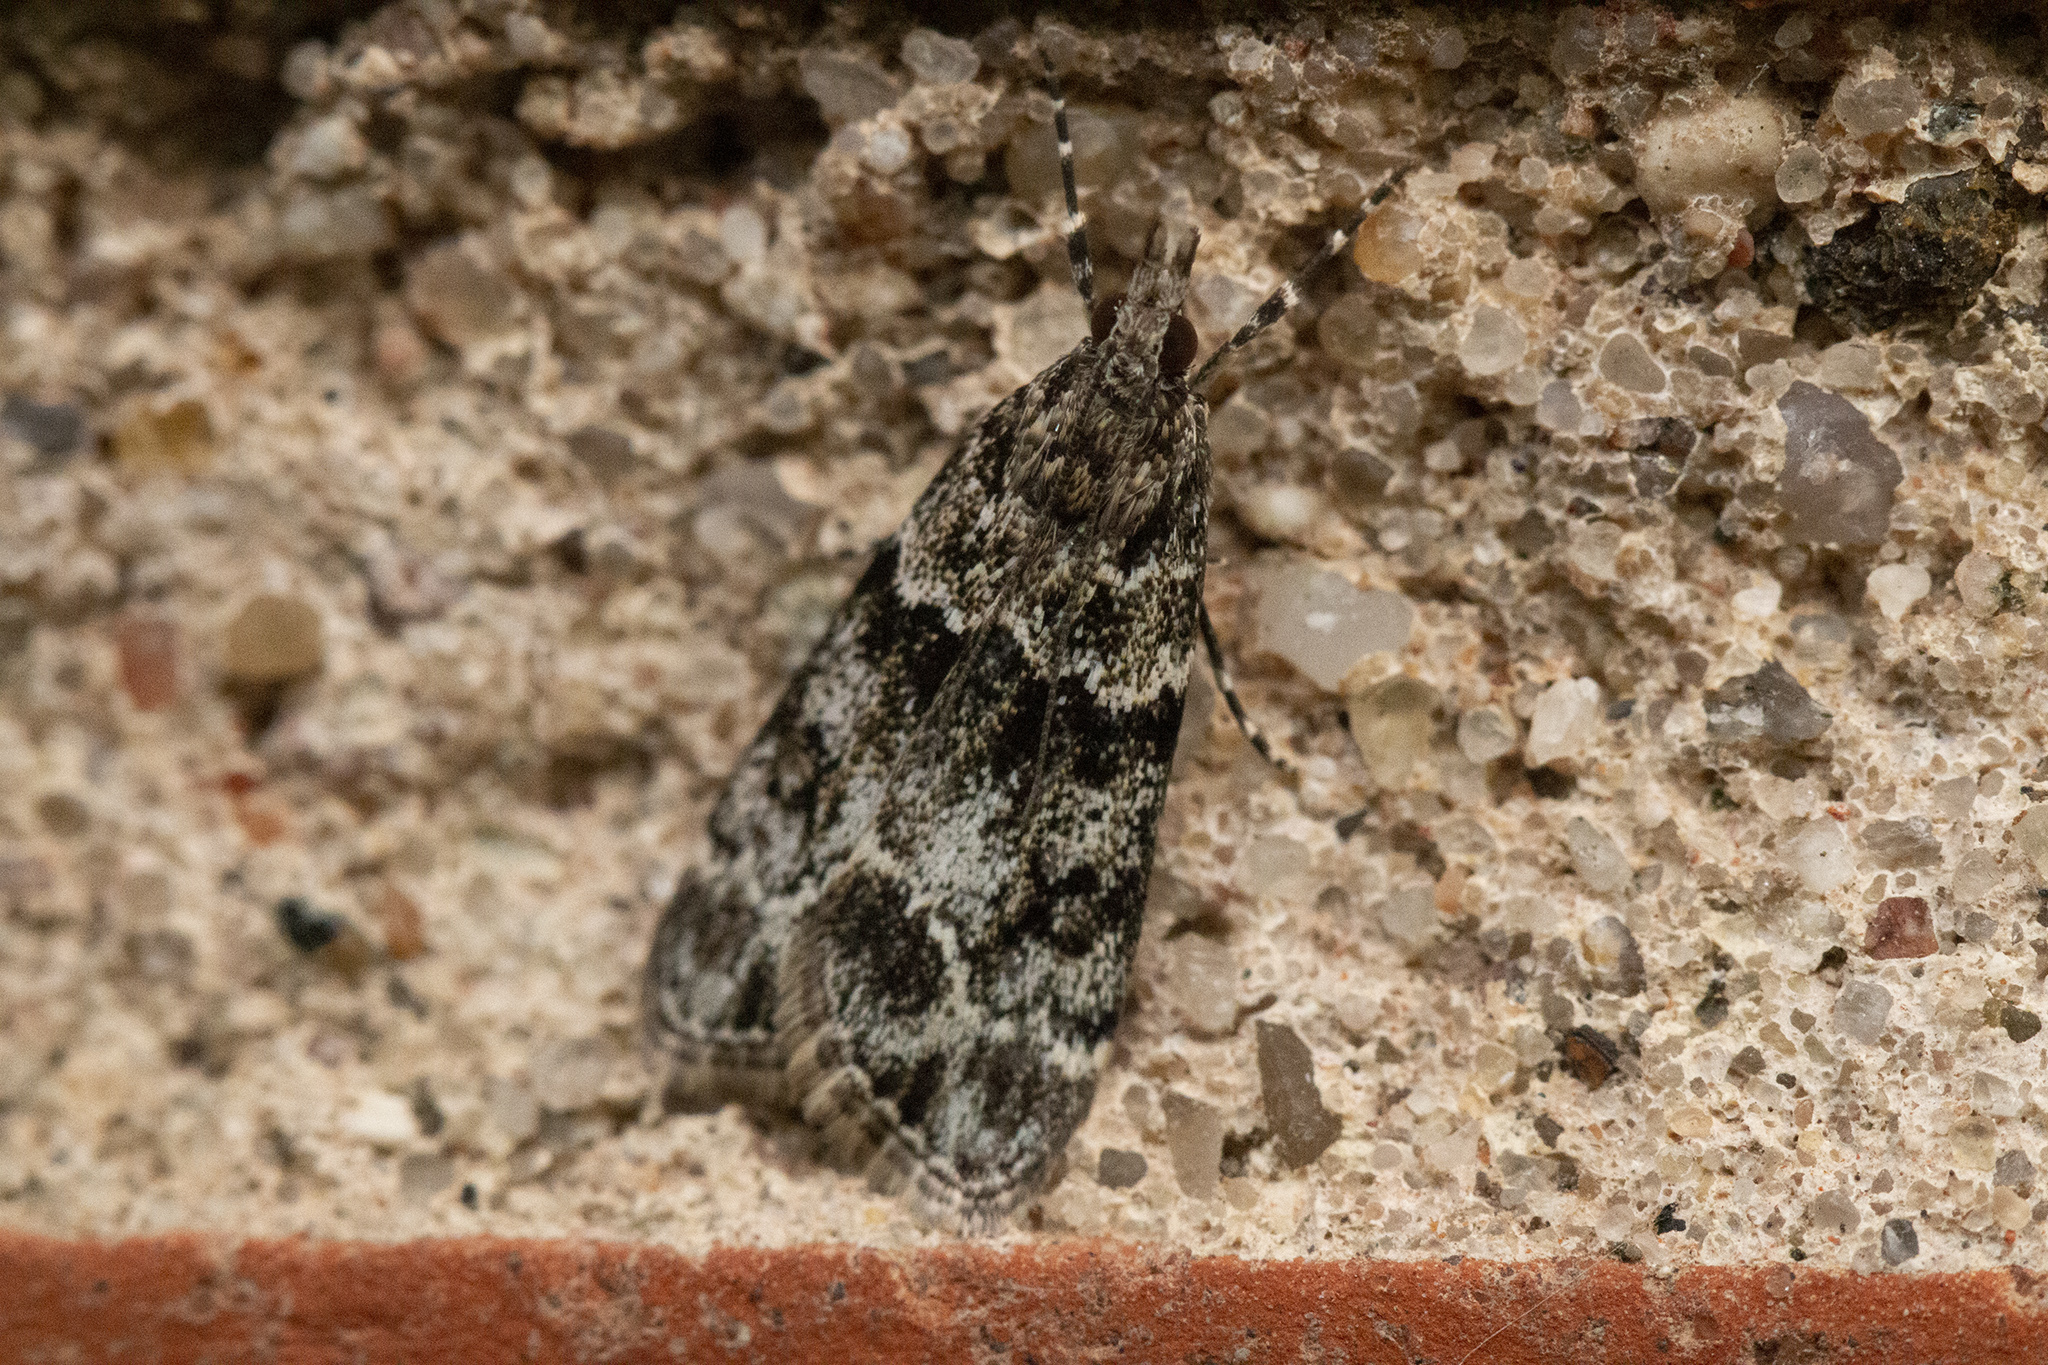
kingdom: Animalia
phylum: Arthropoda
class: Insecta
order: Lepidoptera
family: Crambidae
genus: Eudonia
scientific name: Eudonia mercurella
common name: Small grey
